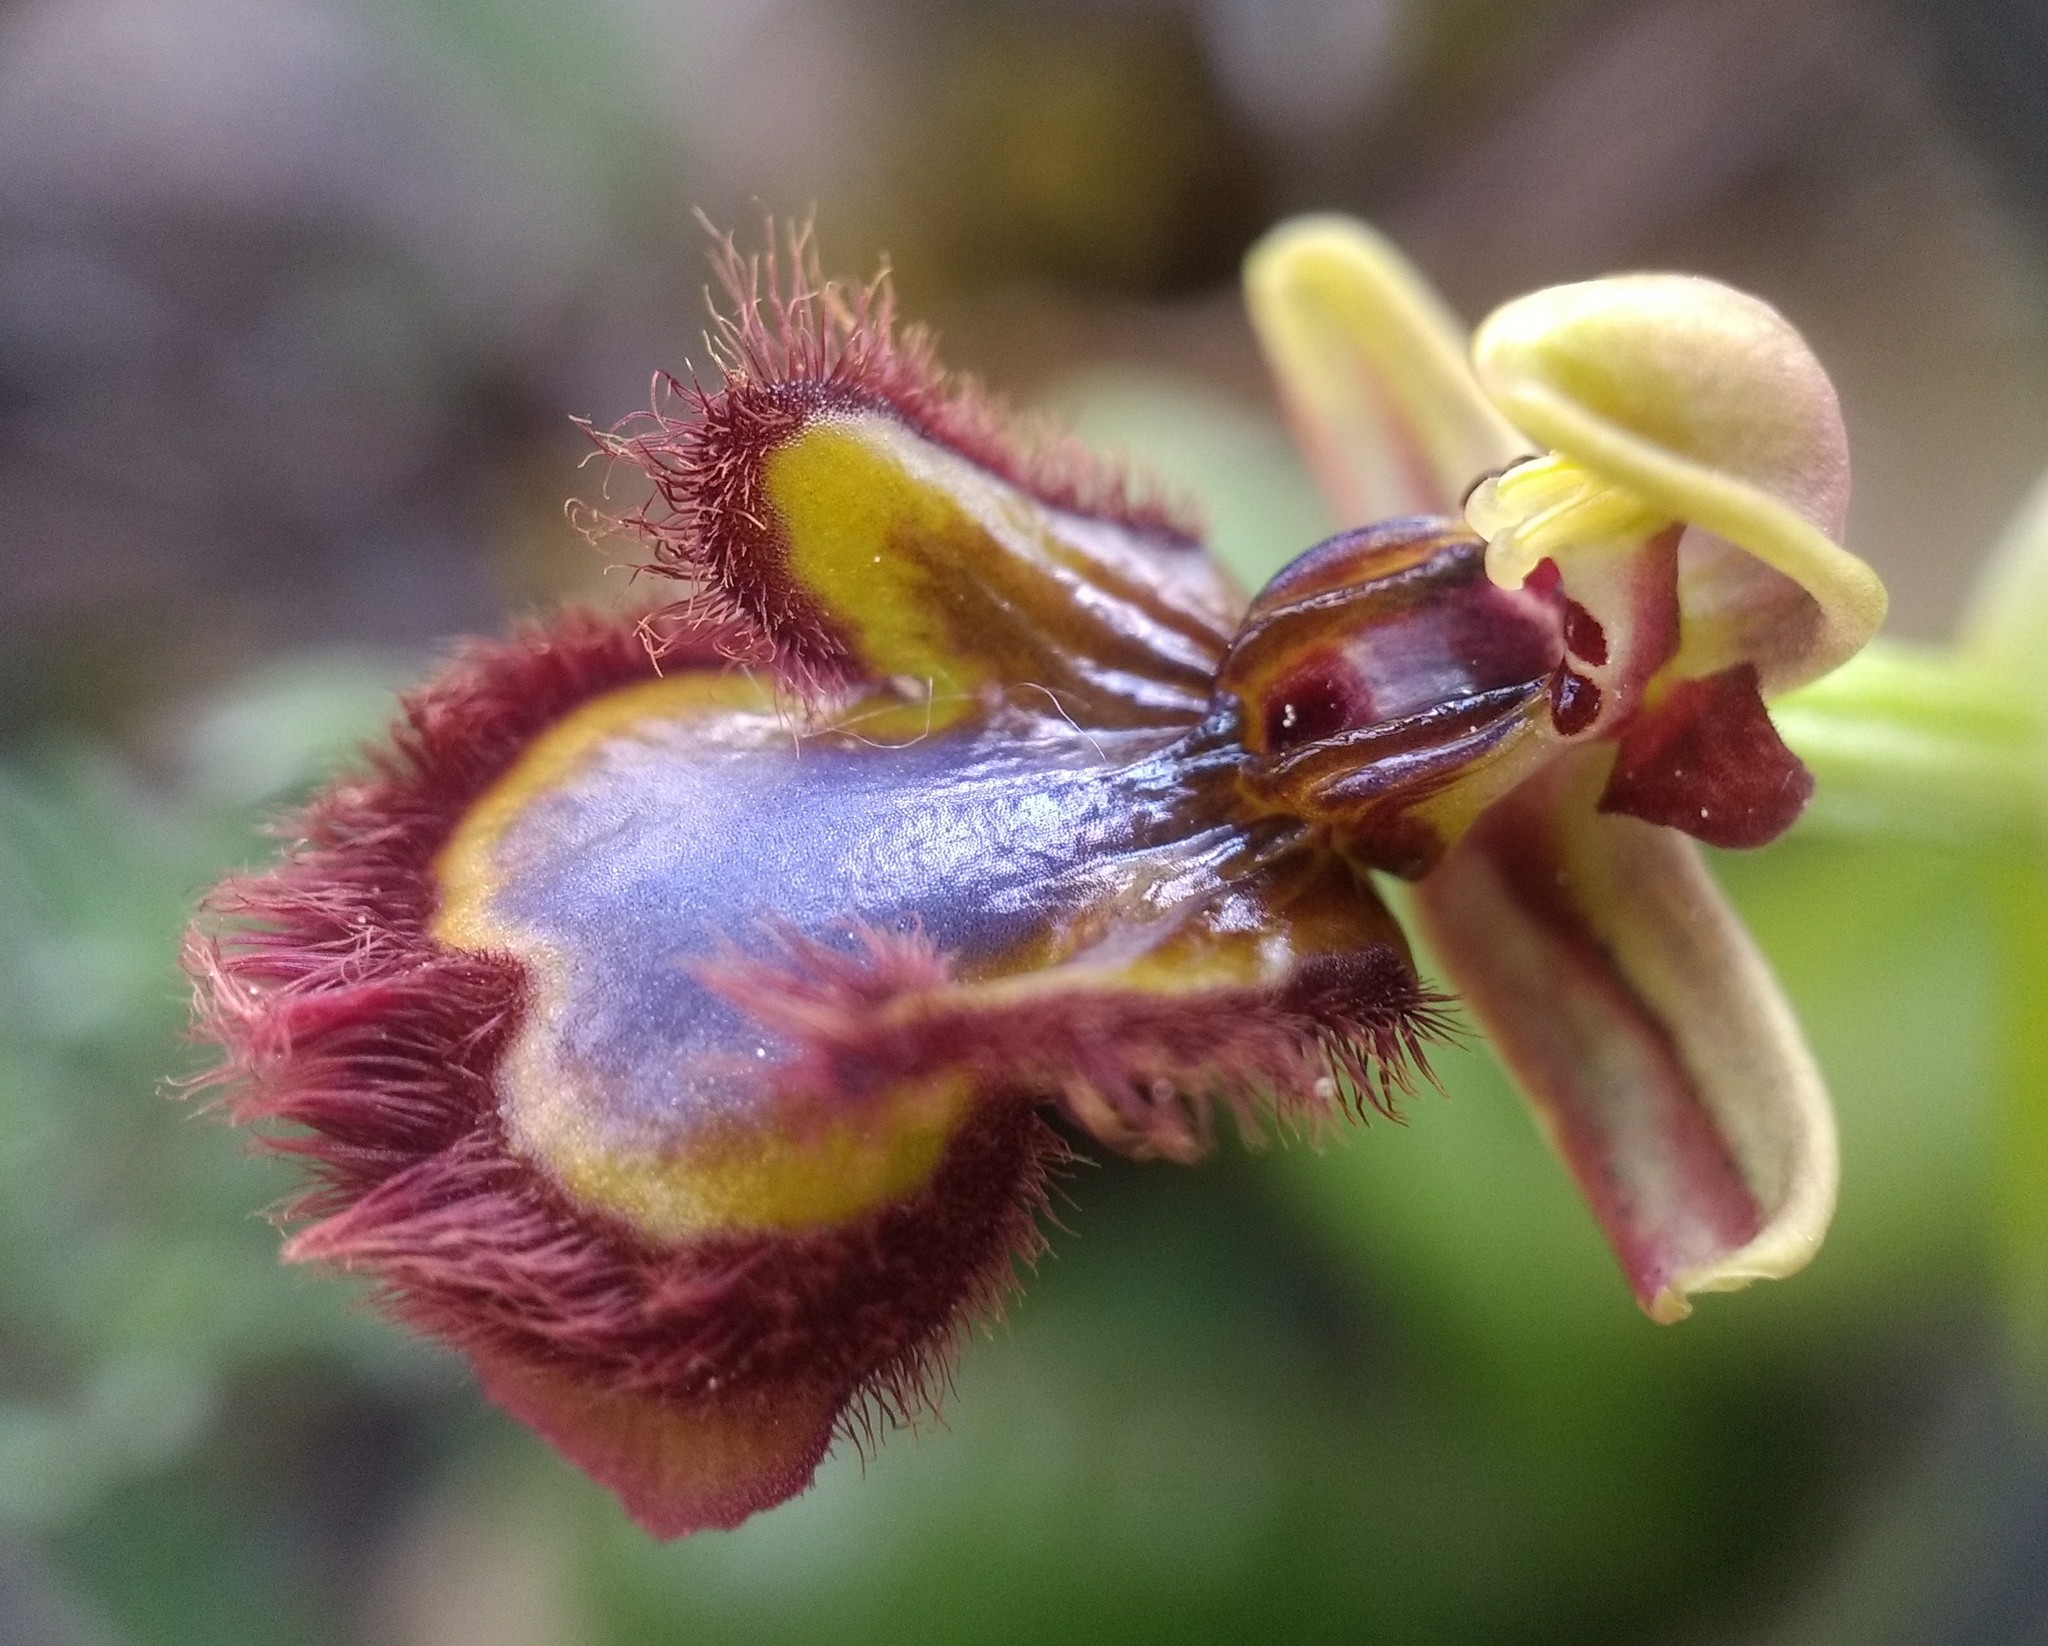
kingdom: Plantae
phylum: Tracheophyta
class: Liliopsida
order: Asparagales
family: Orchidaceae
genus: Ophrys
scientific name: Ophrys speculum
